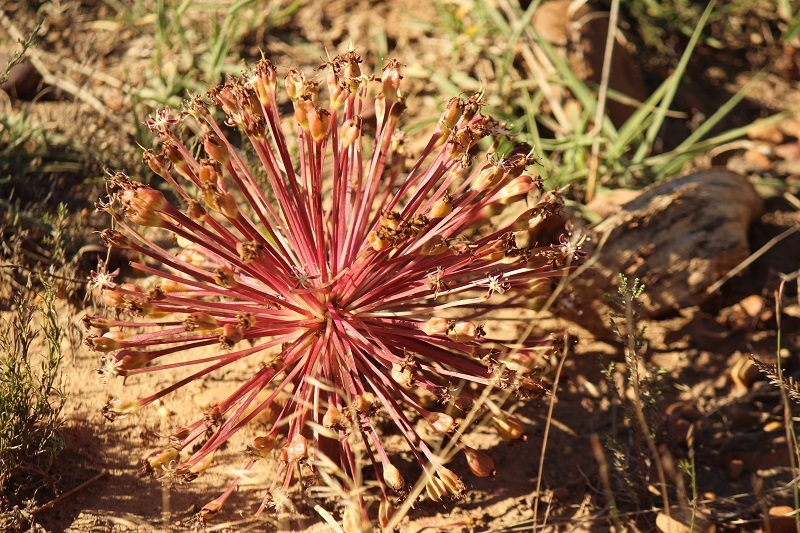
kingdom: Plantae
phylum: Tracheophyta
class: Liliopsida
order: Asparagales
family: Amaryllidaceae
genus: Crossyne
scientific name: Crossyne guttata
